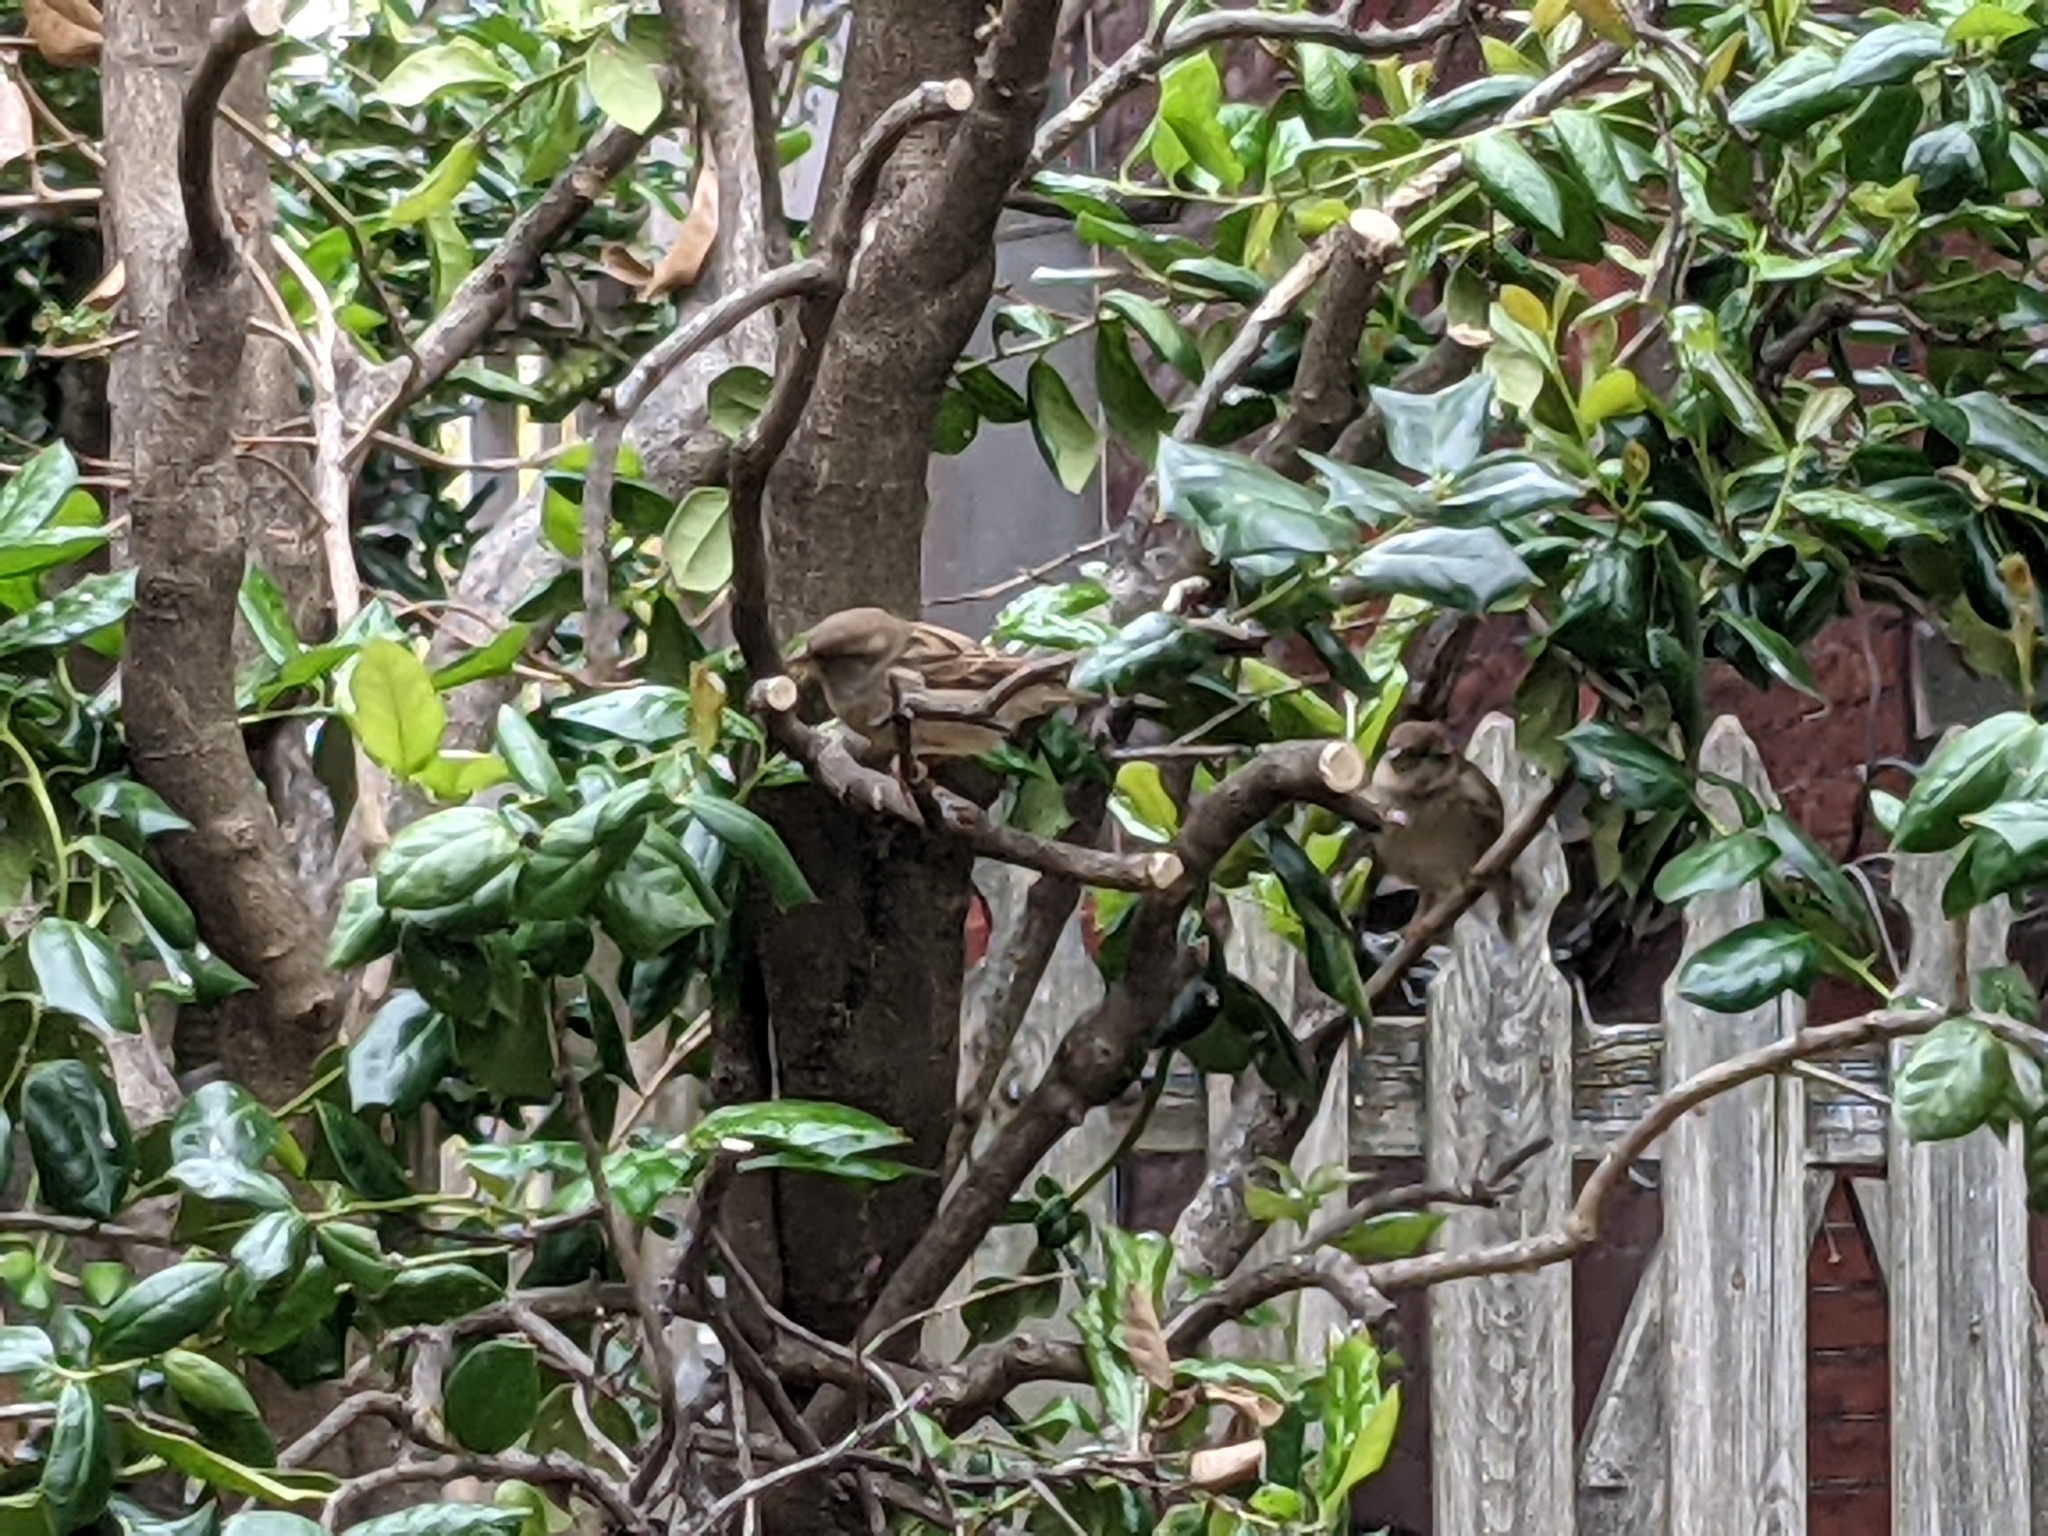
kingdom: Animalia
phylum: Chordata
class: Aves
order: Passeriformes
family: Passeridae
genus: Passer
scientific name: Passer domesticus
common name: House sparrow
